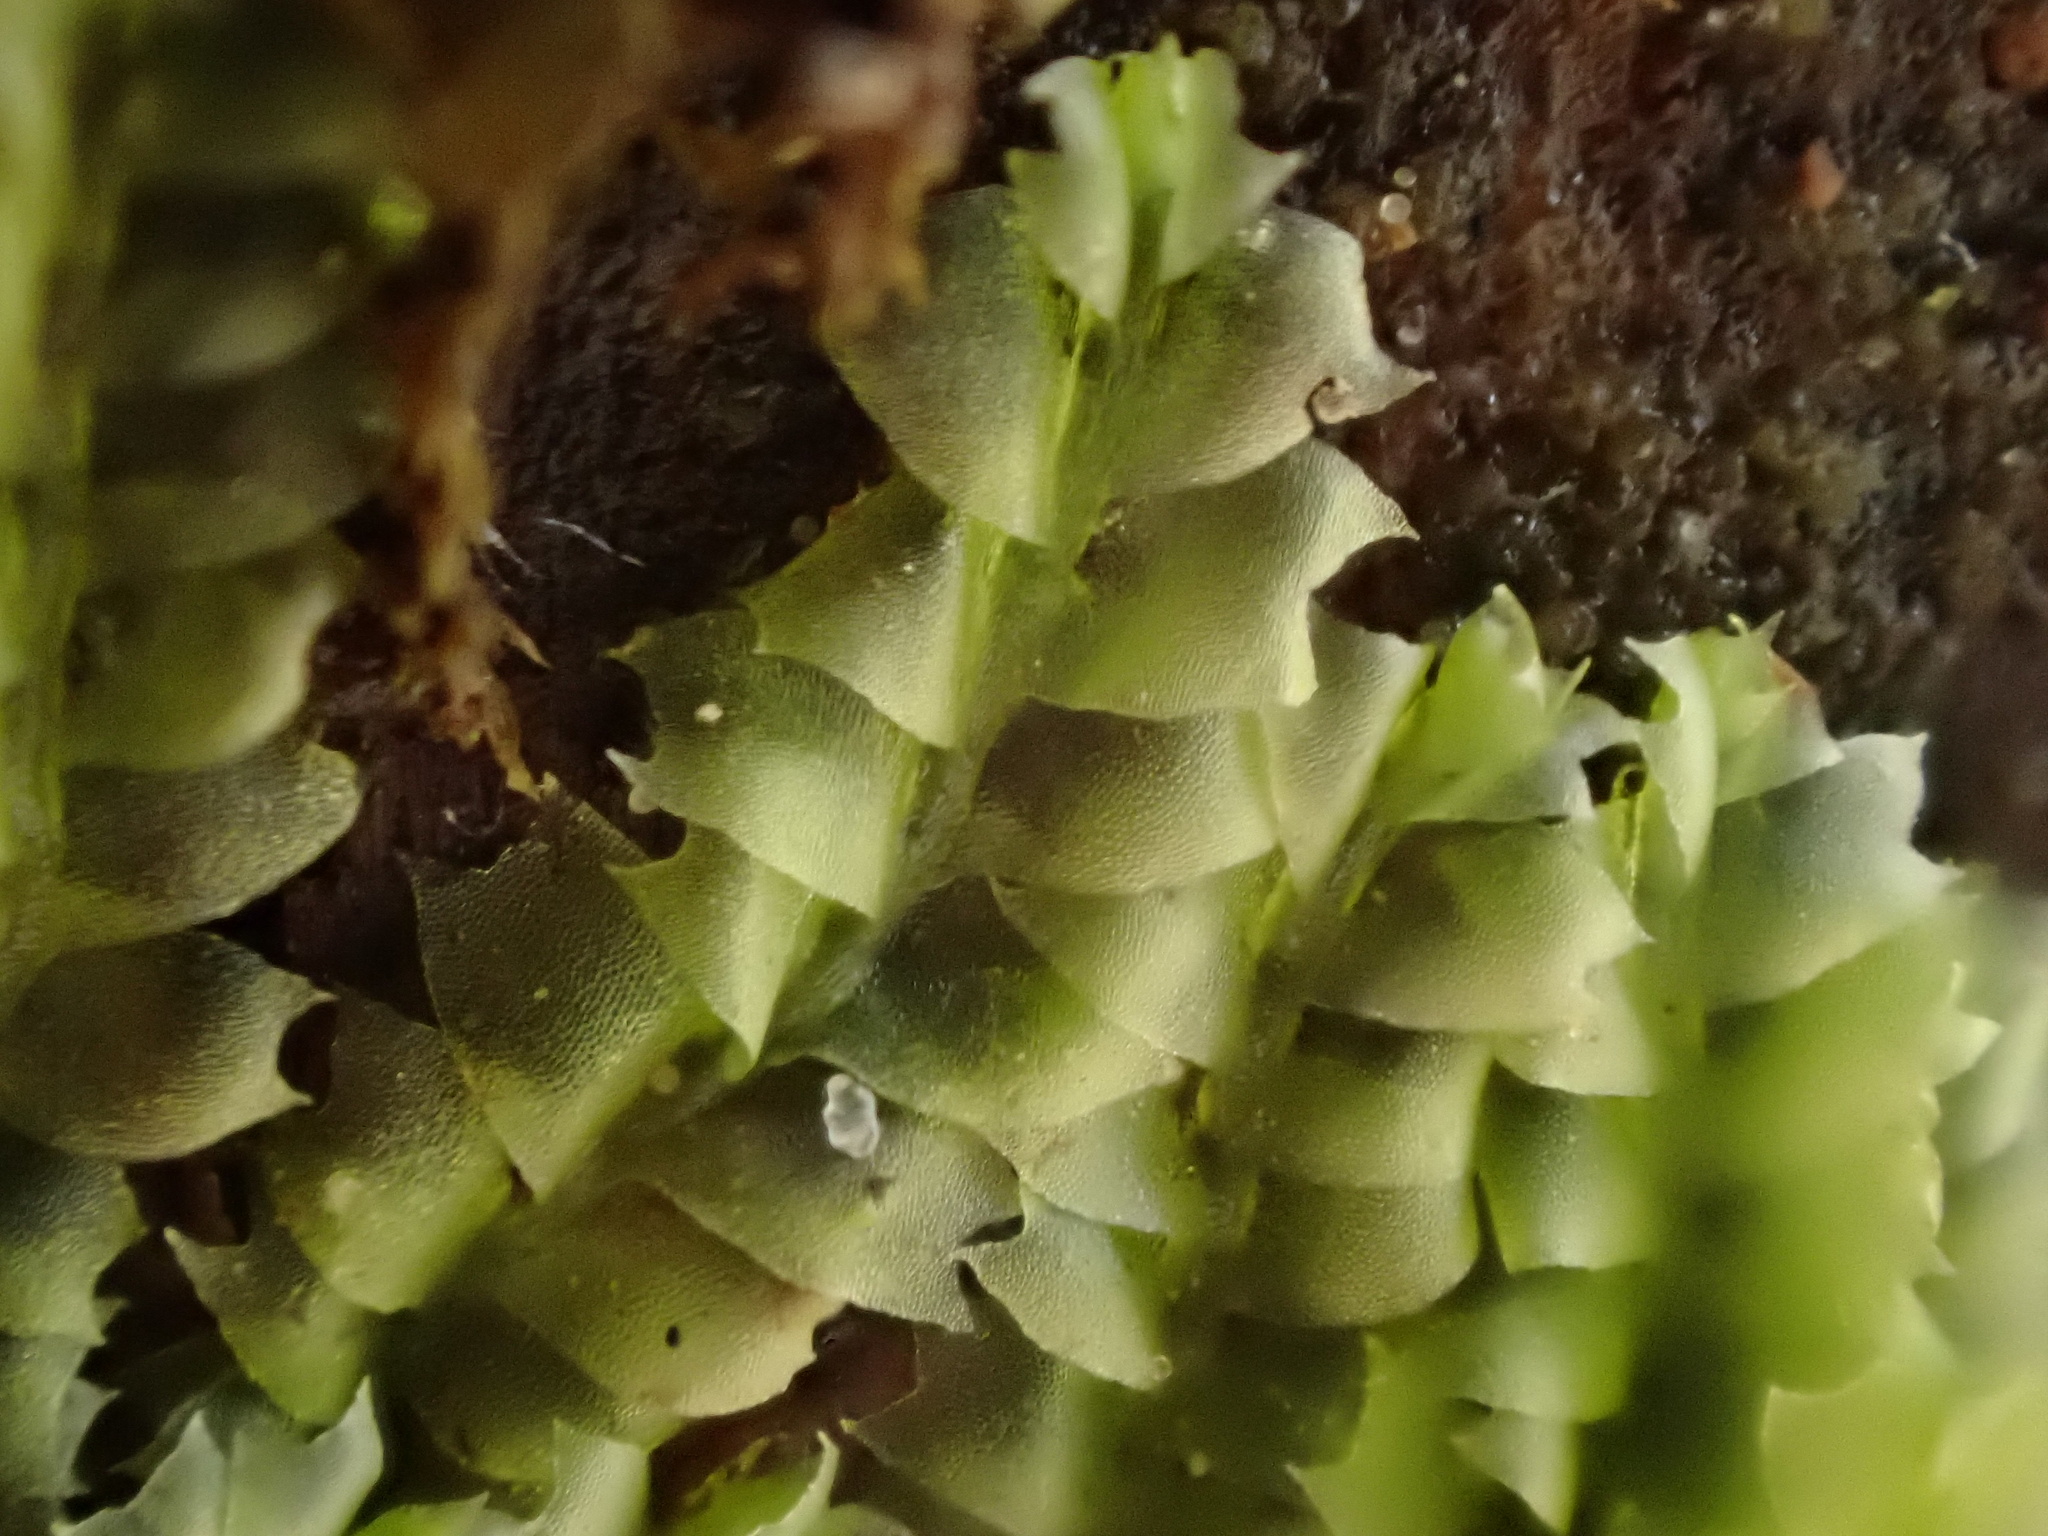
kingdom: Plantae
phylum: Marchantiophyta
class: Jungermanniopsida
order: Jungermanniales
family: Lophocoleaceae
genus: Lophocolea
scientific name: Lophocolea heterophylla
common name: Variable-leaved crestwort
